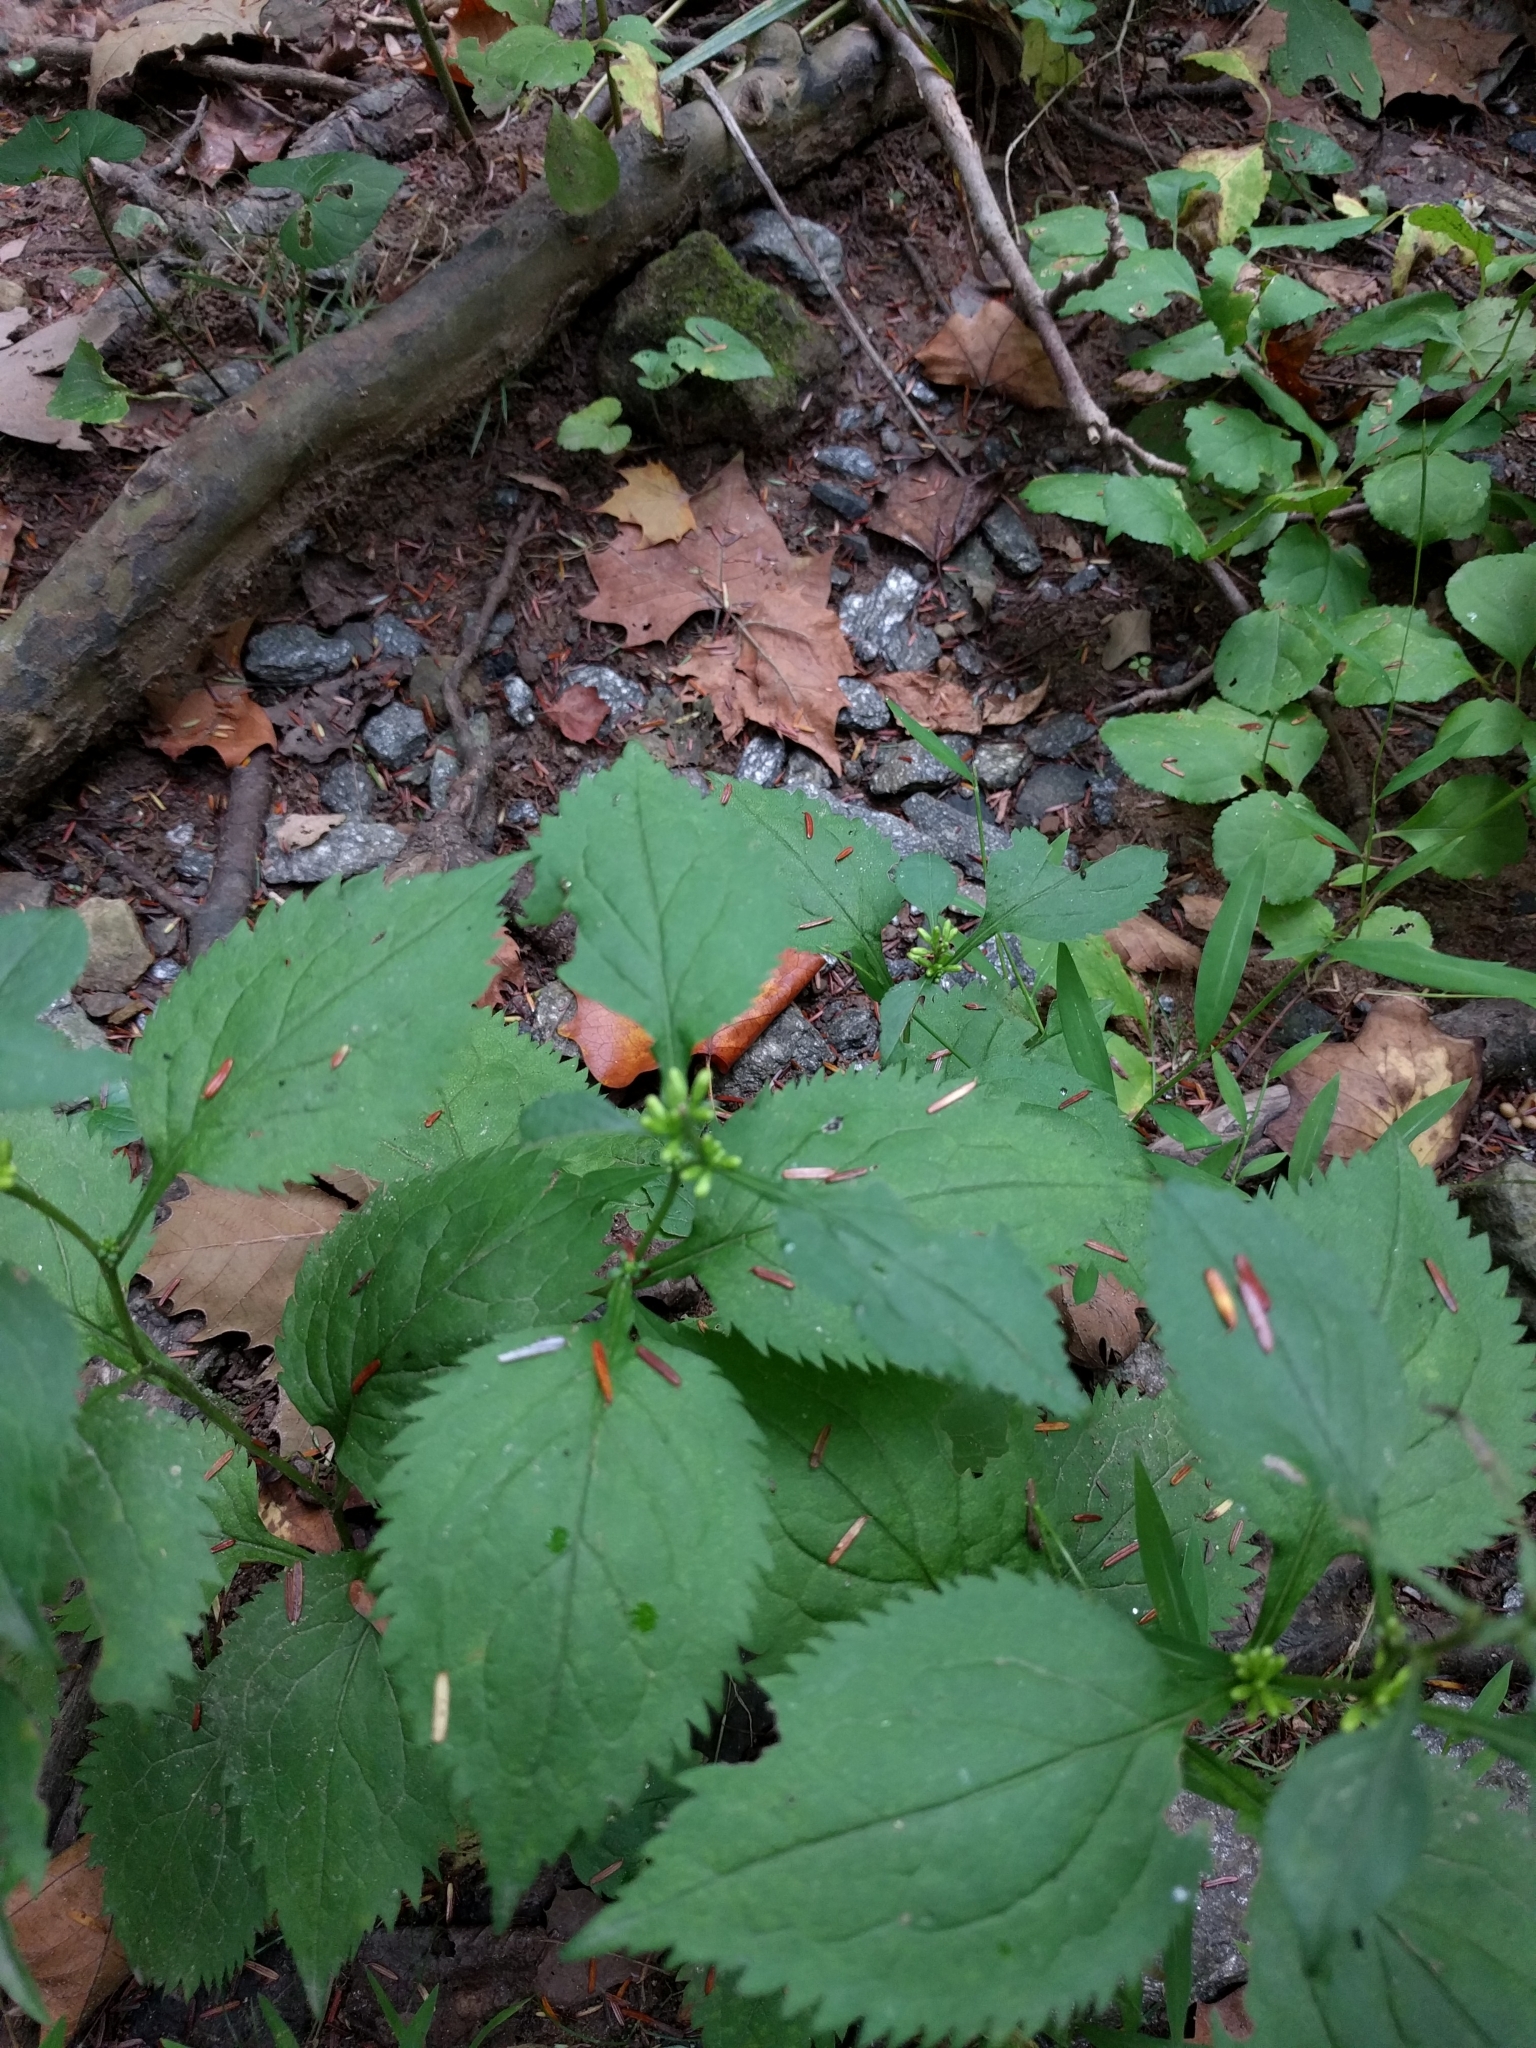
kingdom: Plantae
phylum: Tracheophyta
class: Magnoliopsida
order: Asterales
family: Asteraceae
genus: Solidago
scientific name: Solidago flexicaulis
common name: Zig-zag goldenrod
